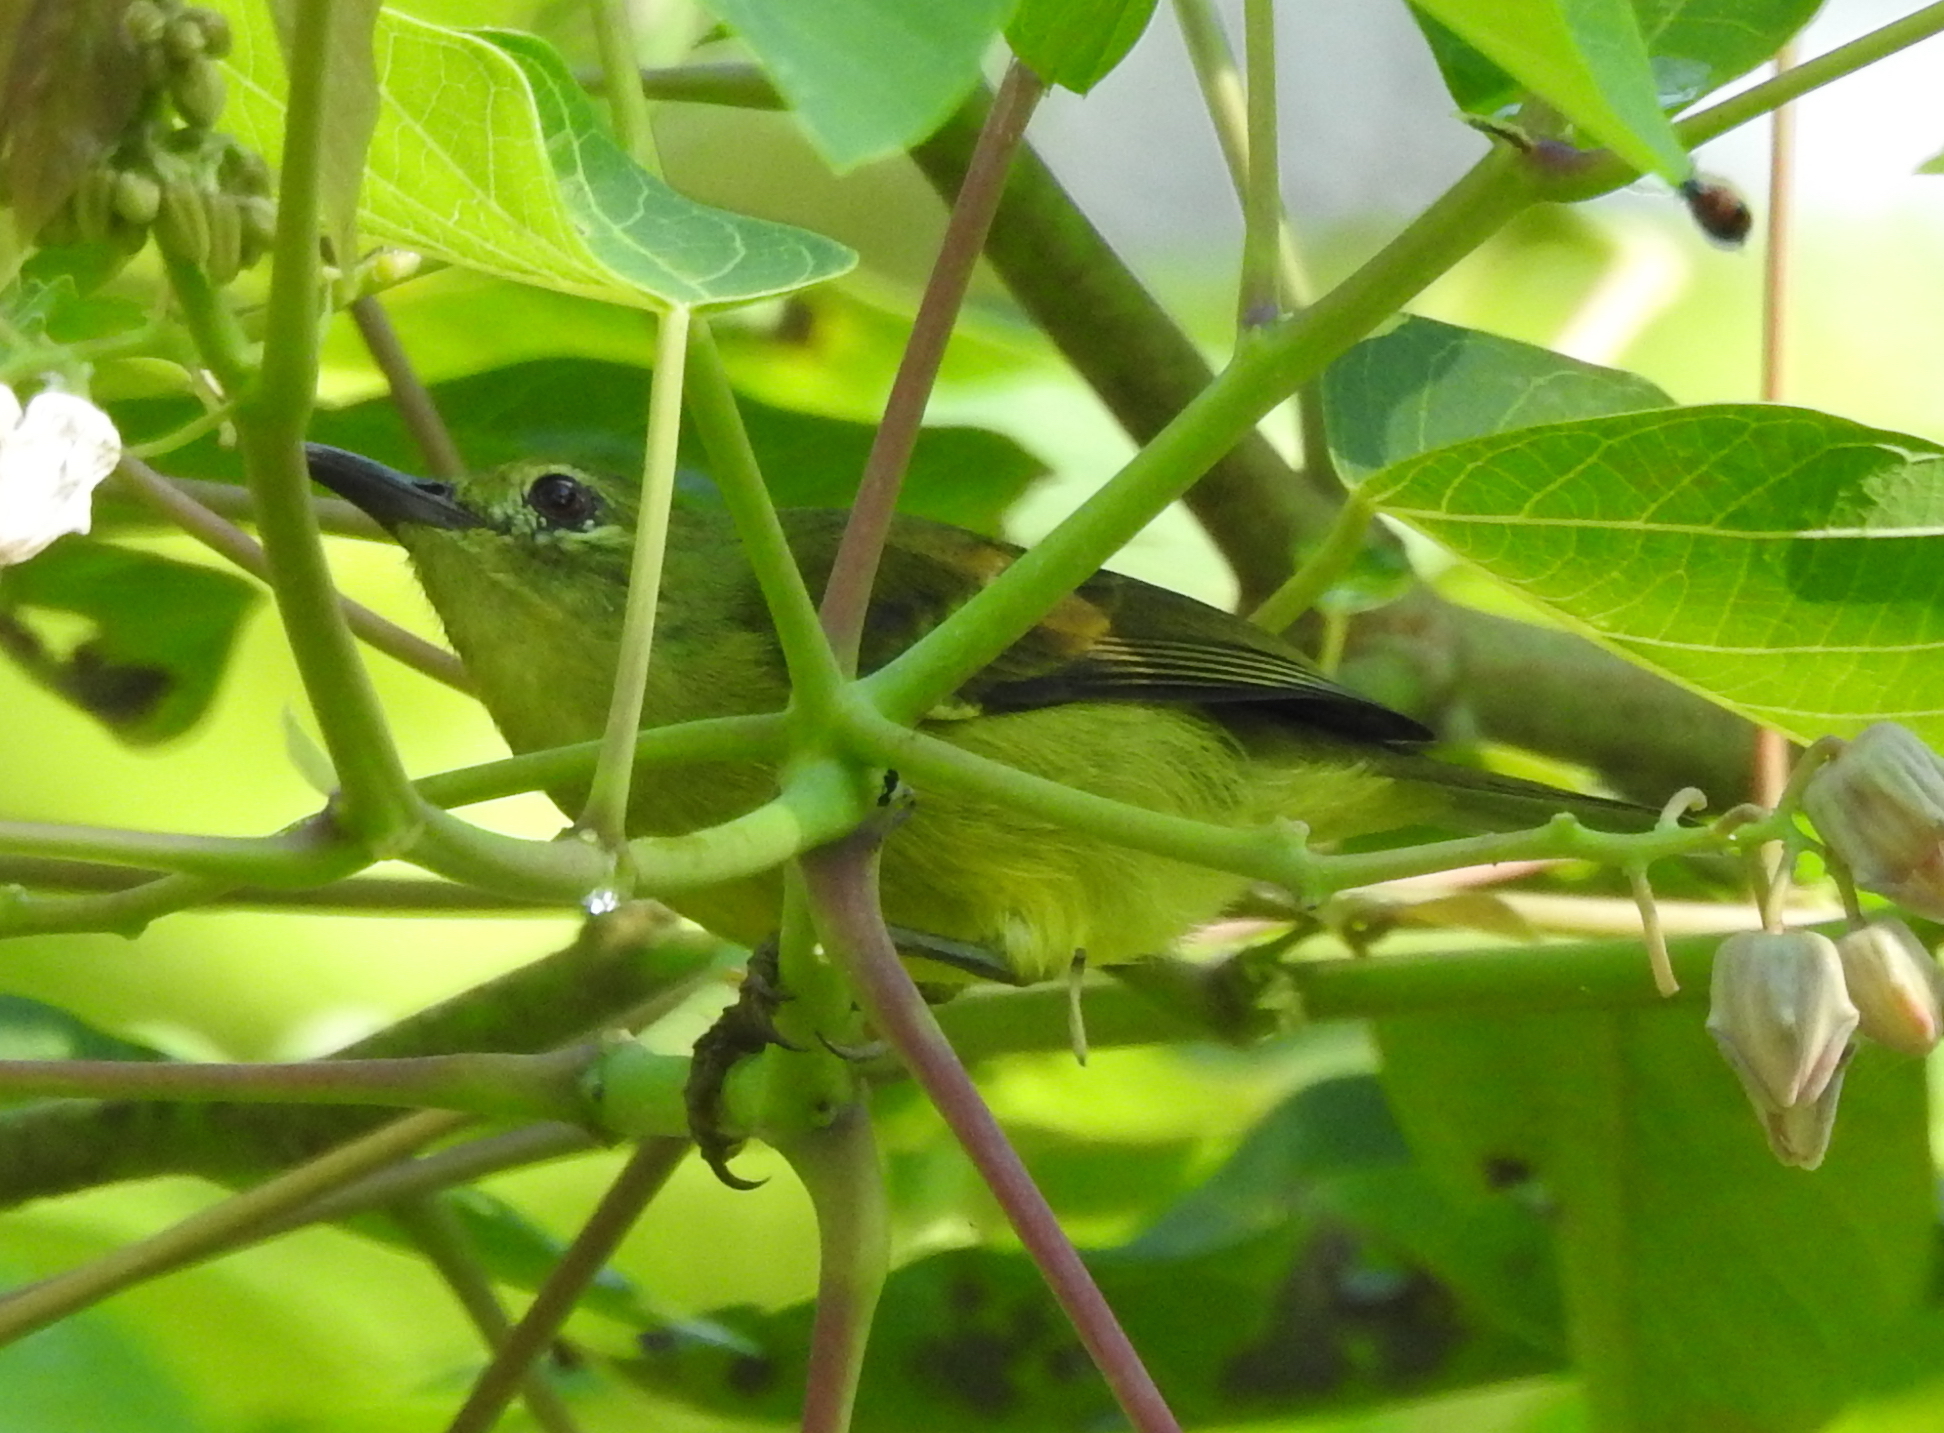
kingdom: Animalia
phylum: Chordata
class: Aves
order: Passeriformes
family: Nectariniidae
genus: Anthreptes
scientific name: Anthreptes malacensis
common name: Brown-throated sunbird
